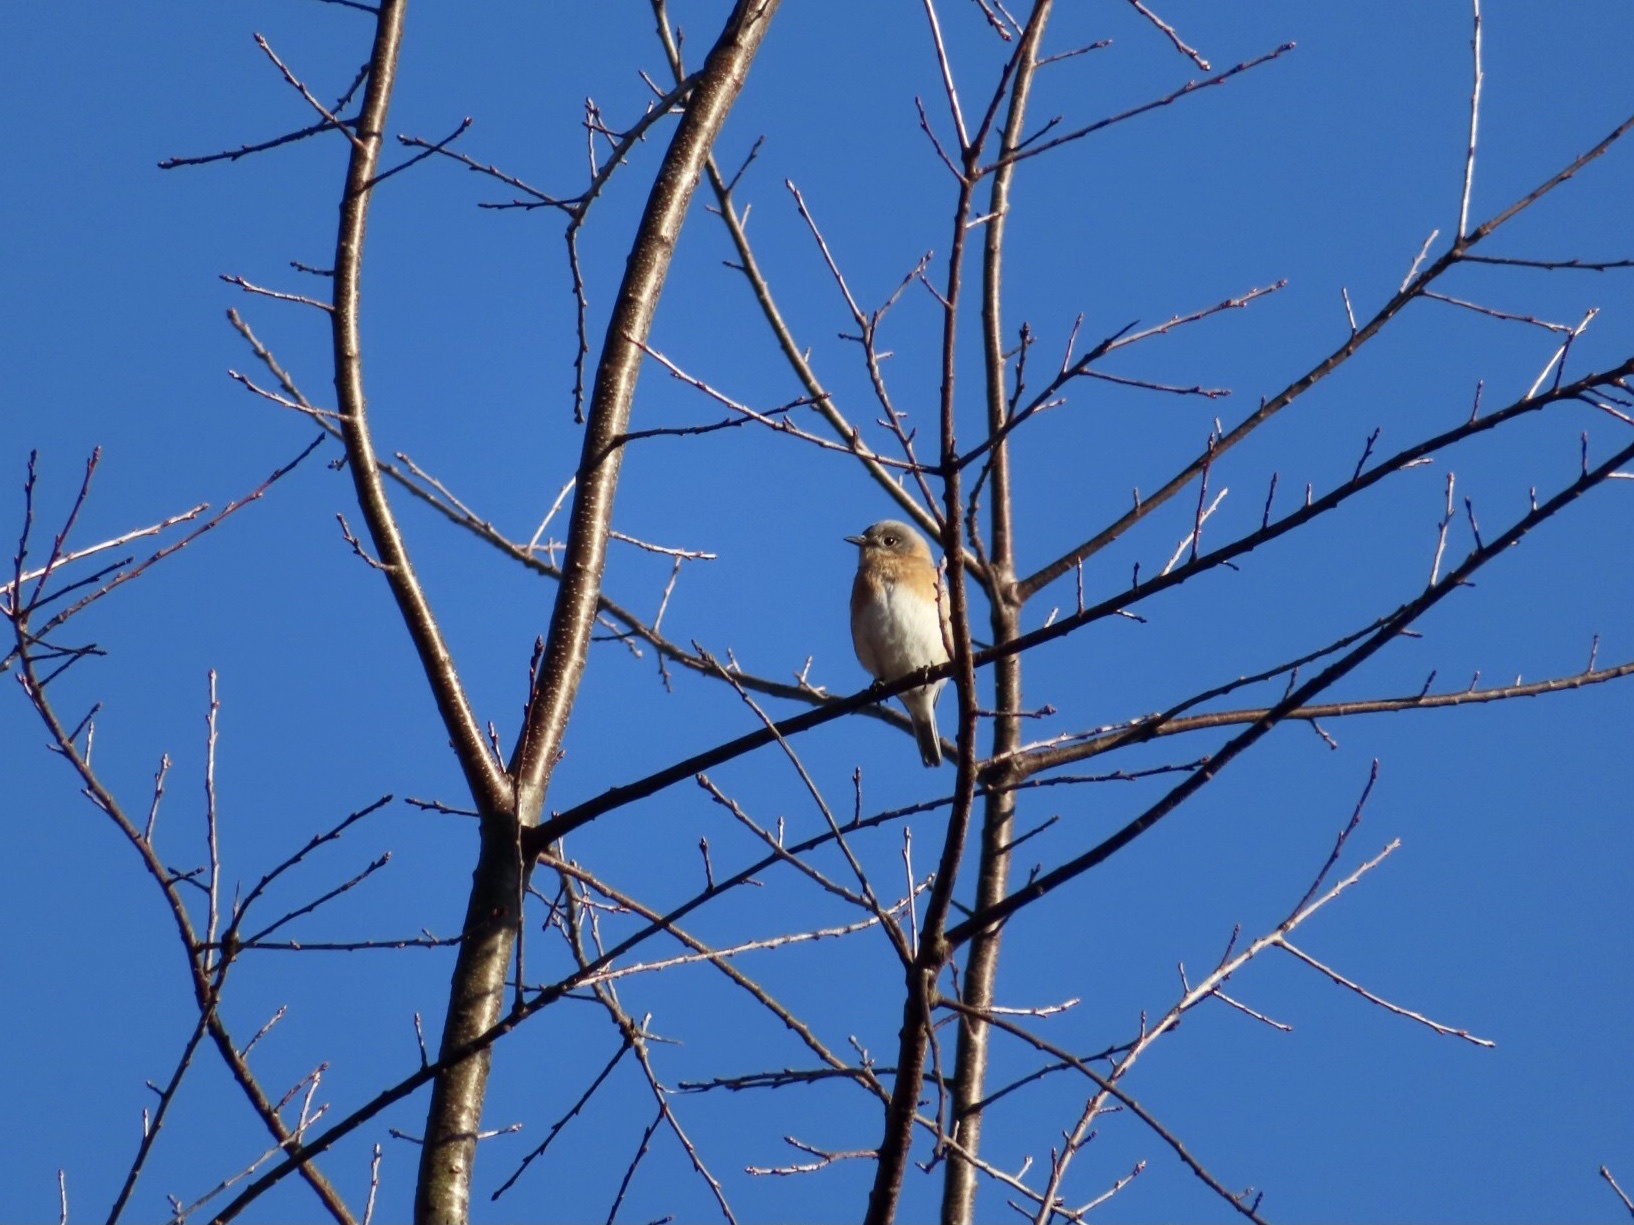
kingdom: Animalia
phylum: Chordata
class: Aves
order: Passeriformes
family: Turdidae
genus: Sialia
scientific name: Sialia sialis
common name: Eastern bluebird
